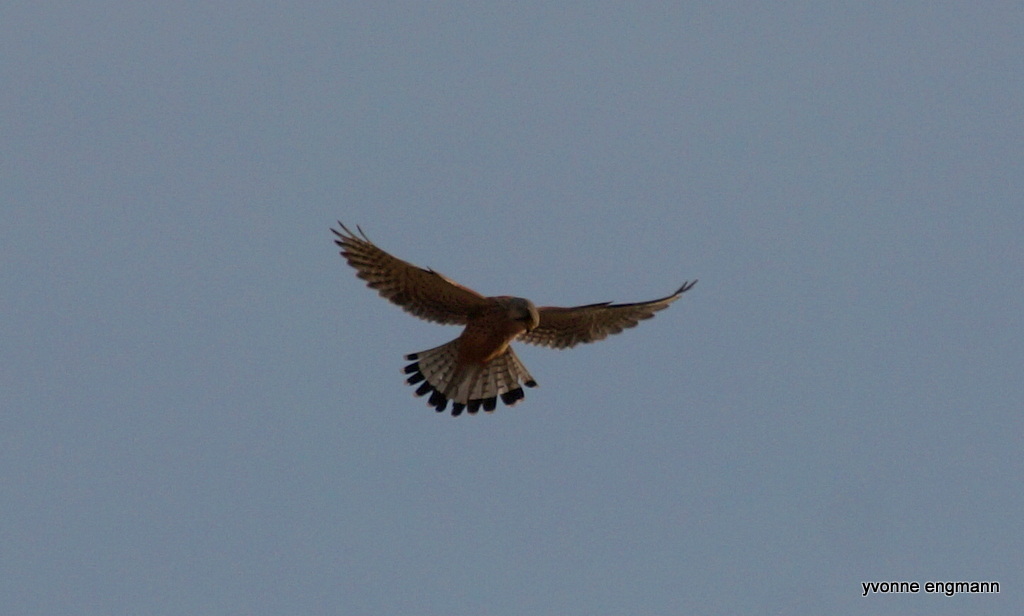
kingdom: Animalia
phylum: Chordata
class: Aves
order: Falconiformes
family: Falconidae
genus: Falco
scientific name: Falco tinnunculus
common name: Common kestrel
